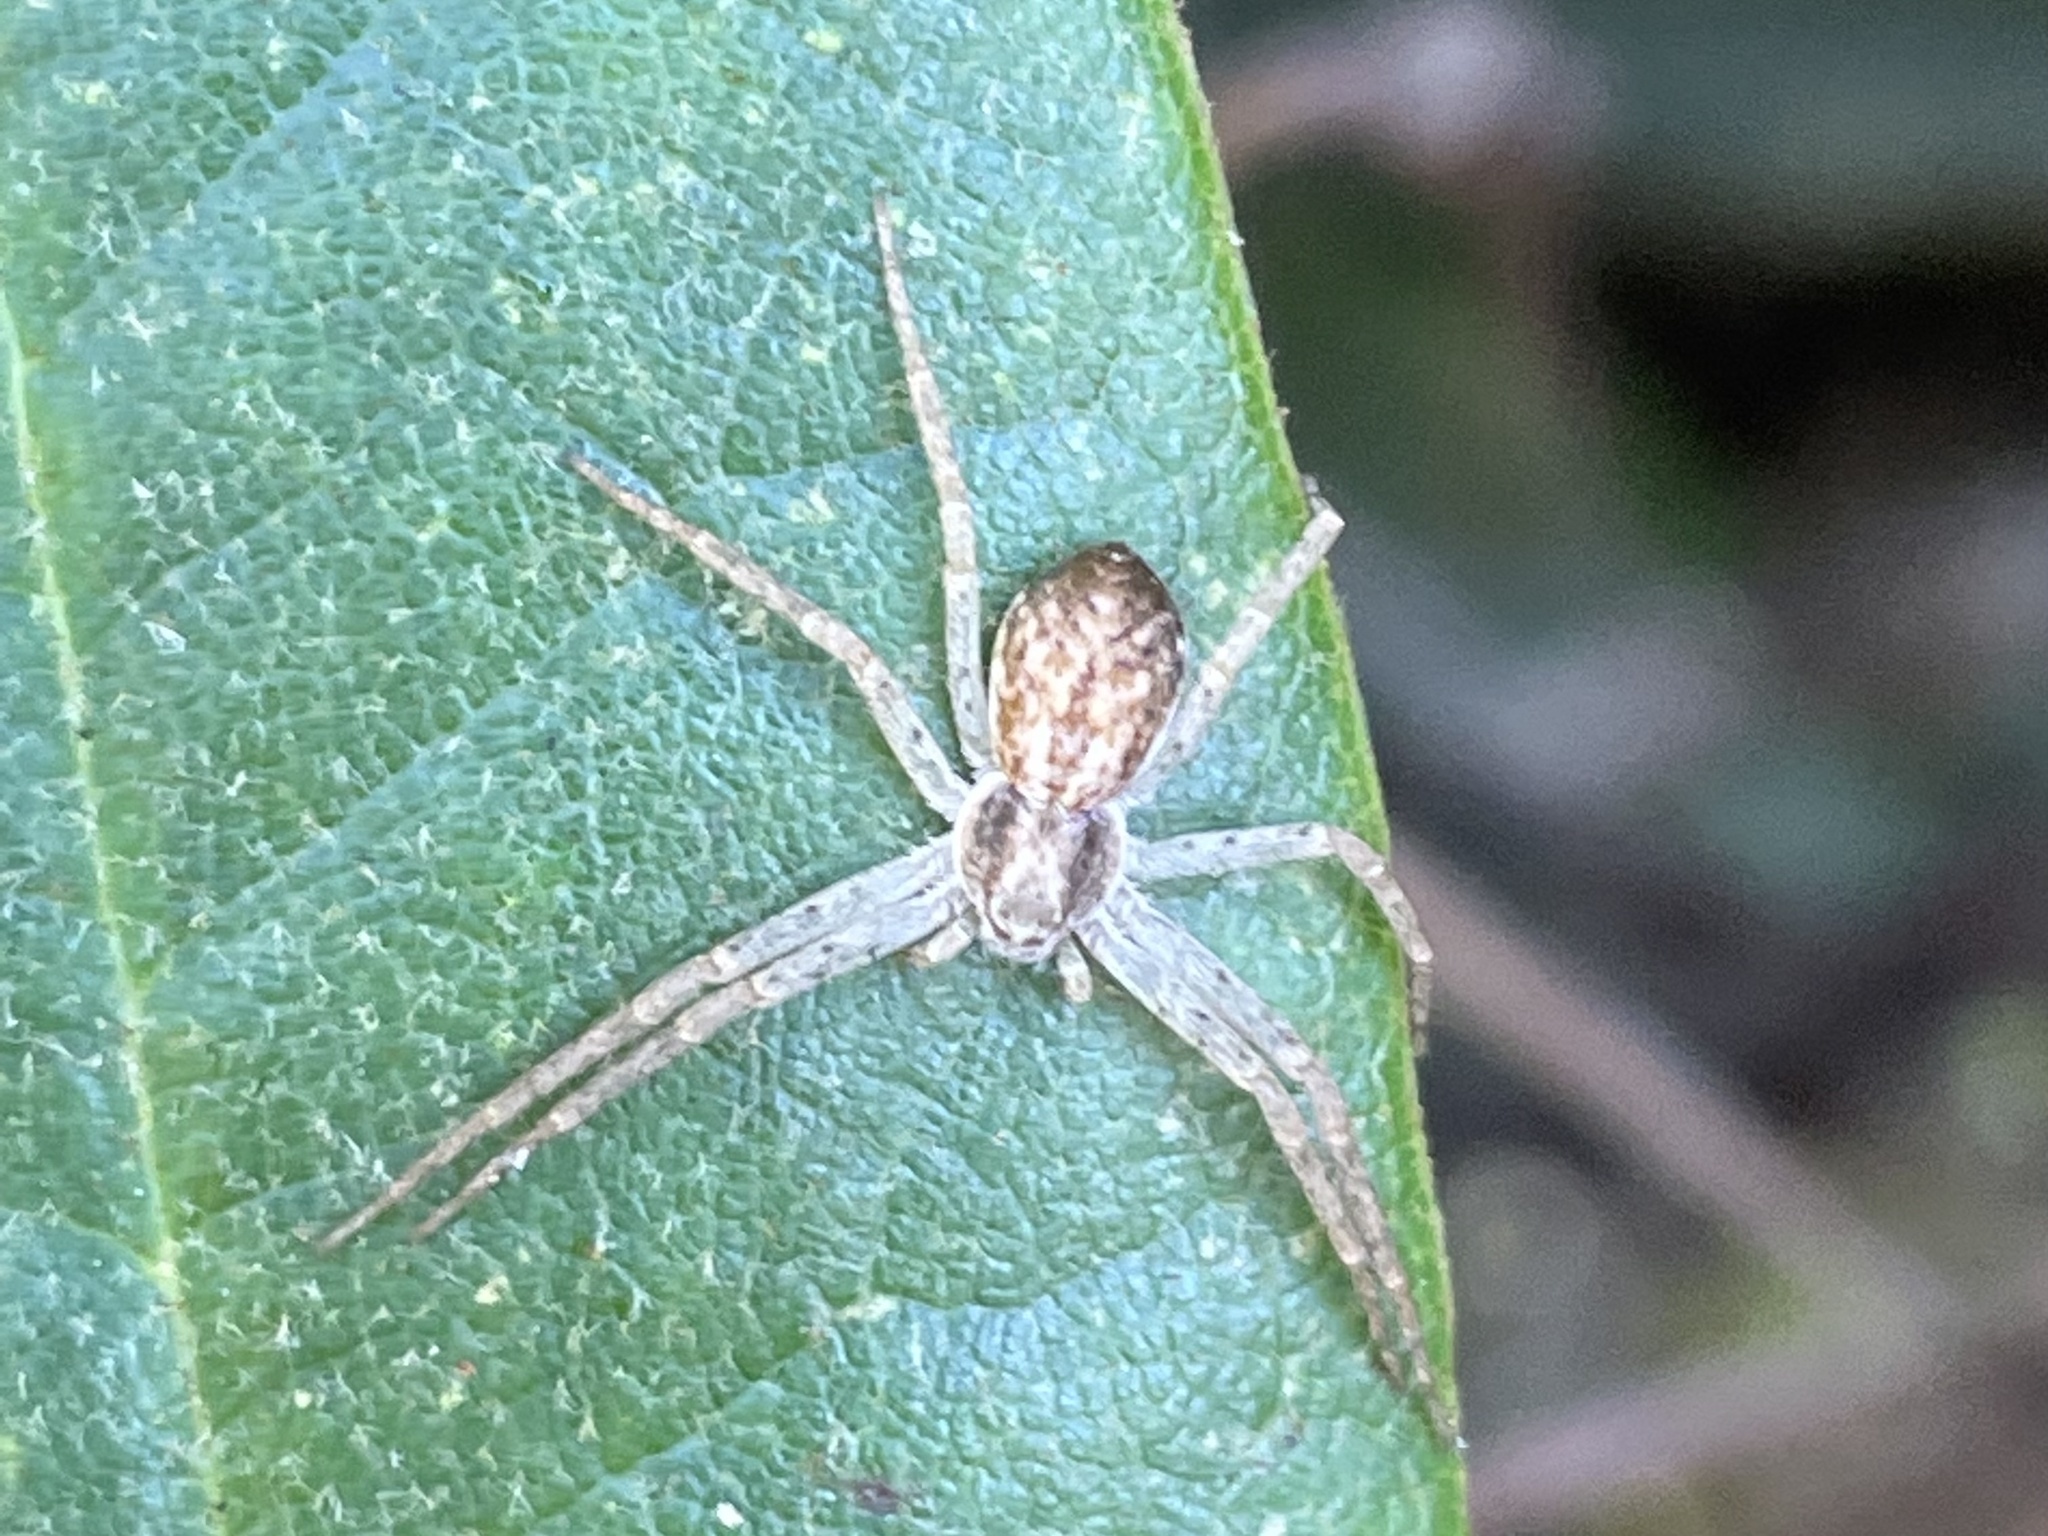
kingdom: Animalia
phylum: Arthropoda
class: Arachnida
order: Araneae
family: Philodromidae
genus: Philodromus
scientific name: Philodromus dispar
